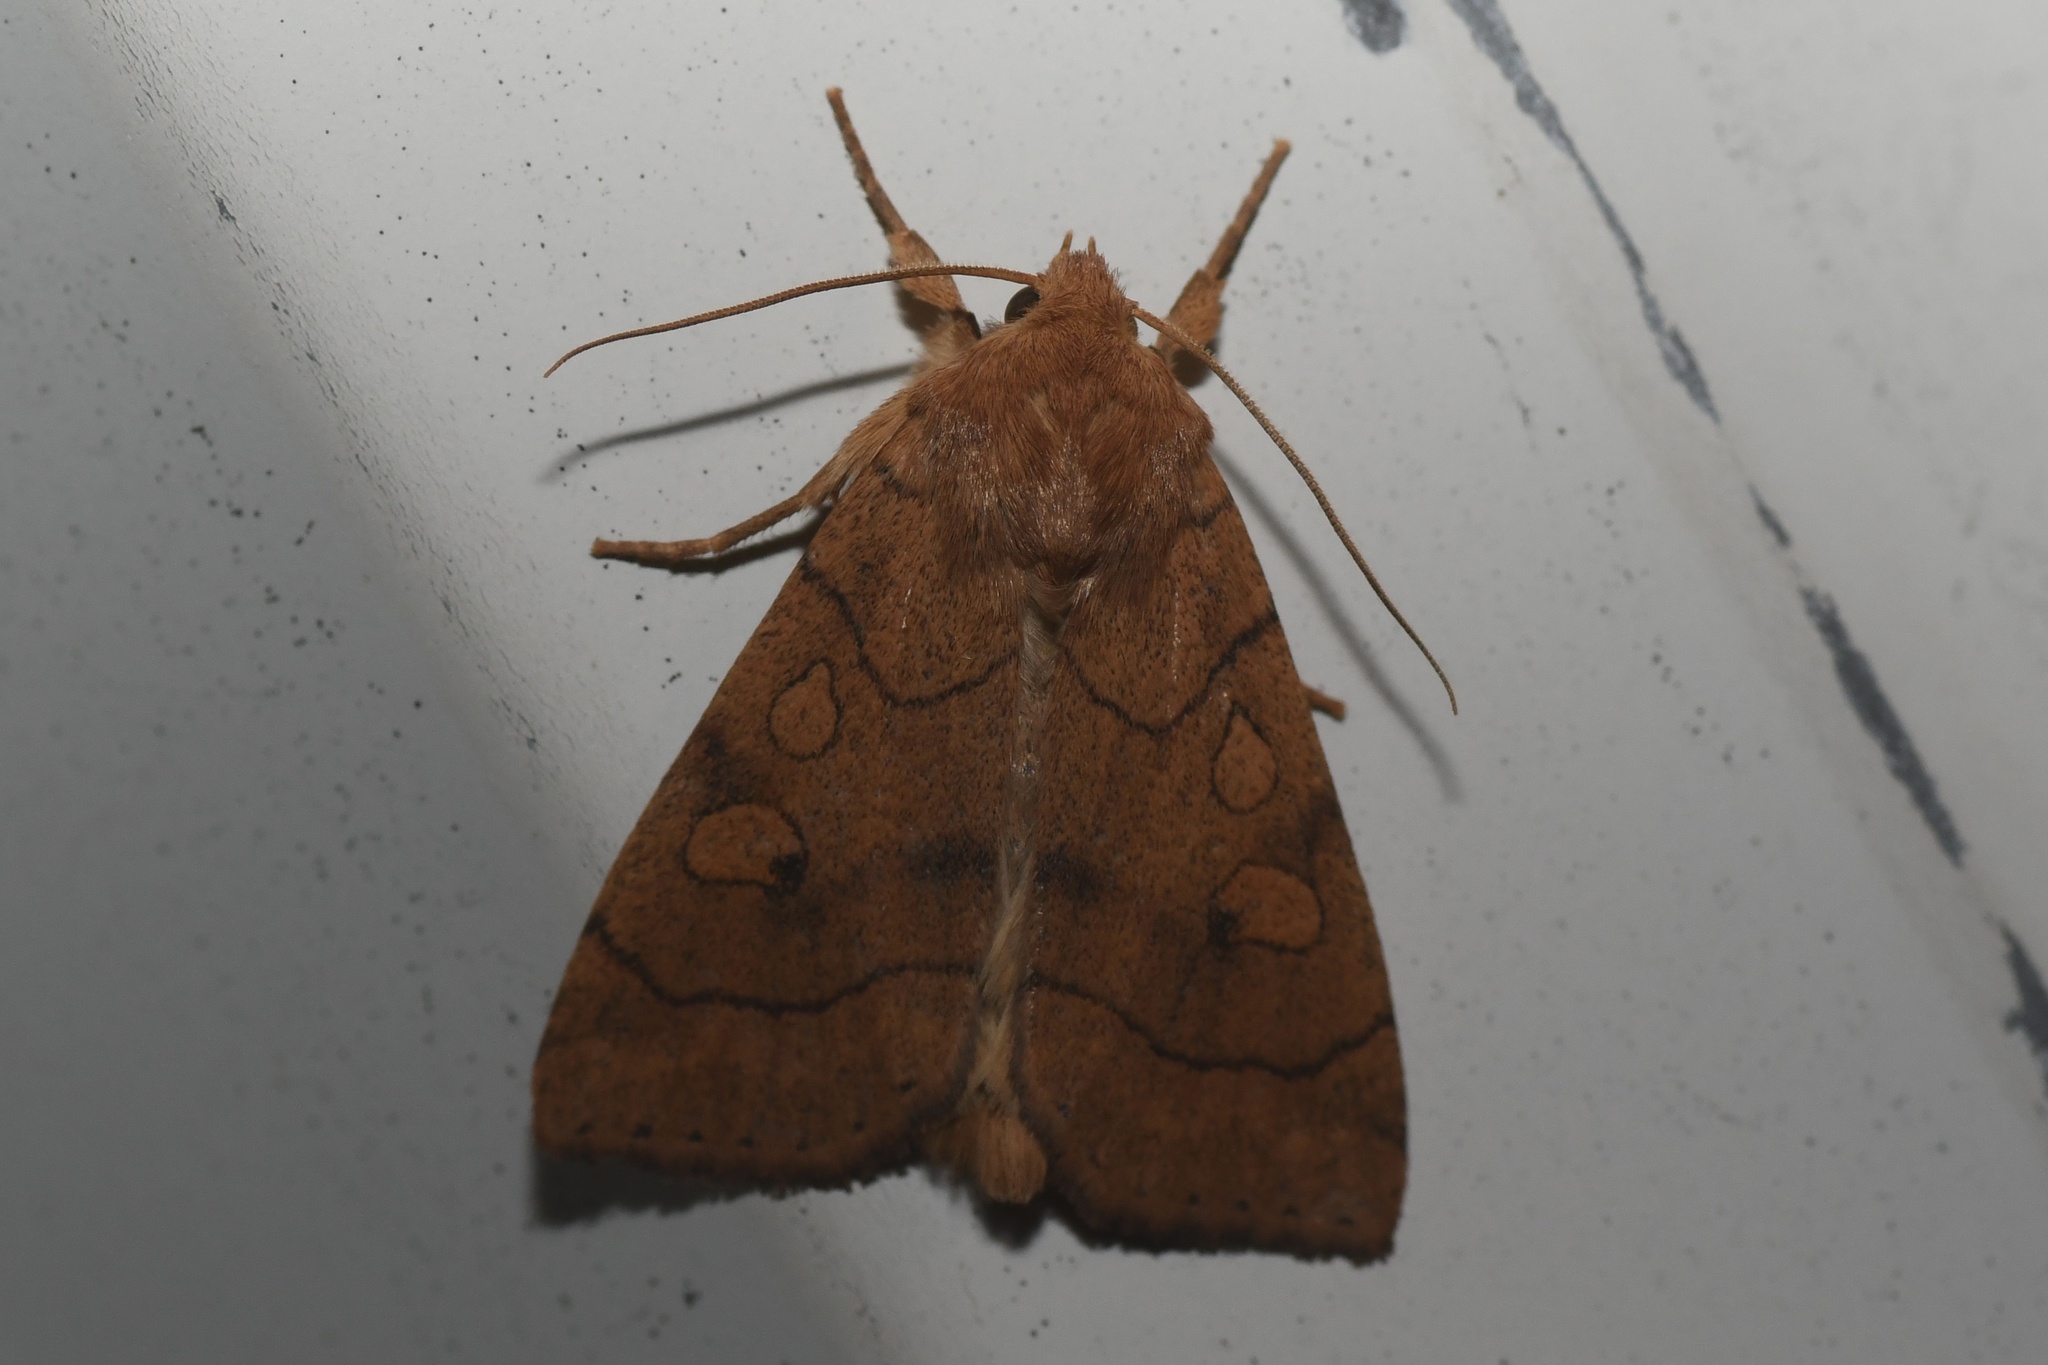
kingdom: Animalia
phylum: Arthropoda
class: Insecta
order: Lepidoptera
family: Noctuidae
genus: Enargia
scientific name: Enargia infumata
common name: Smoked sallow
